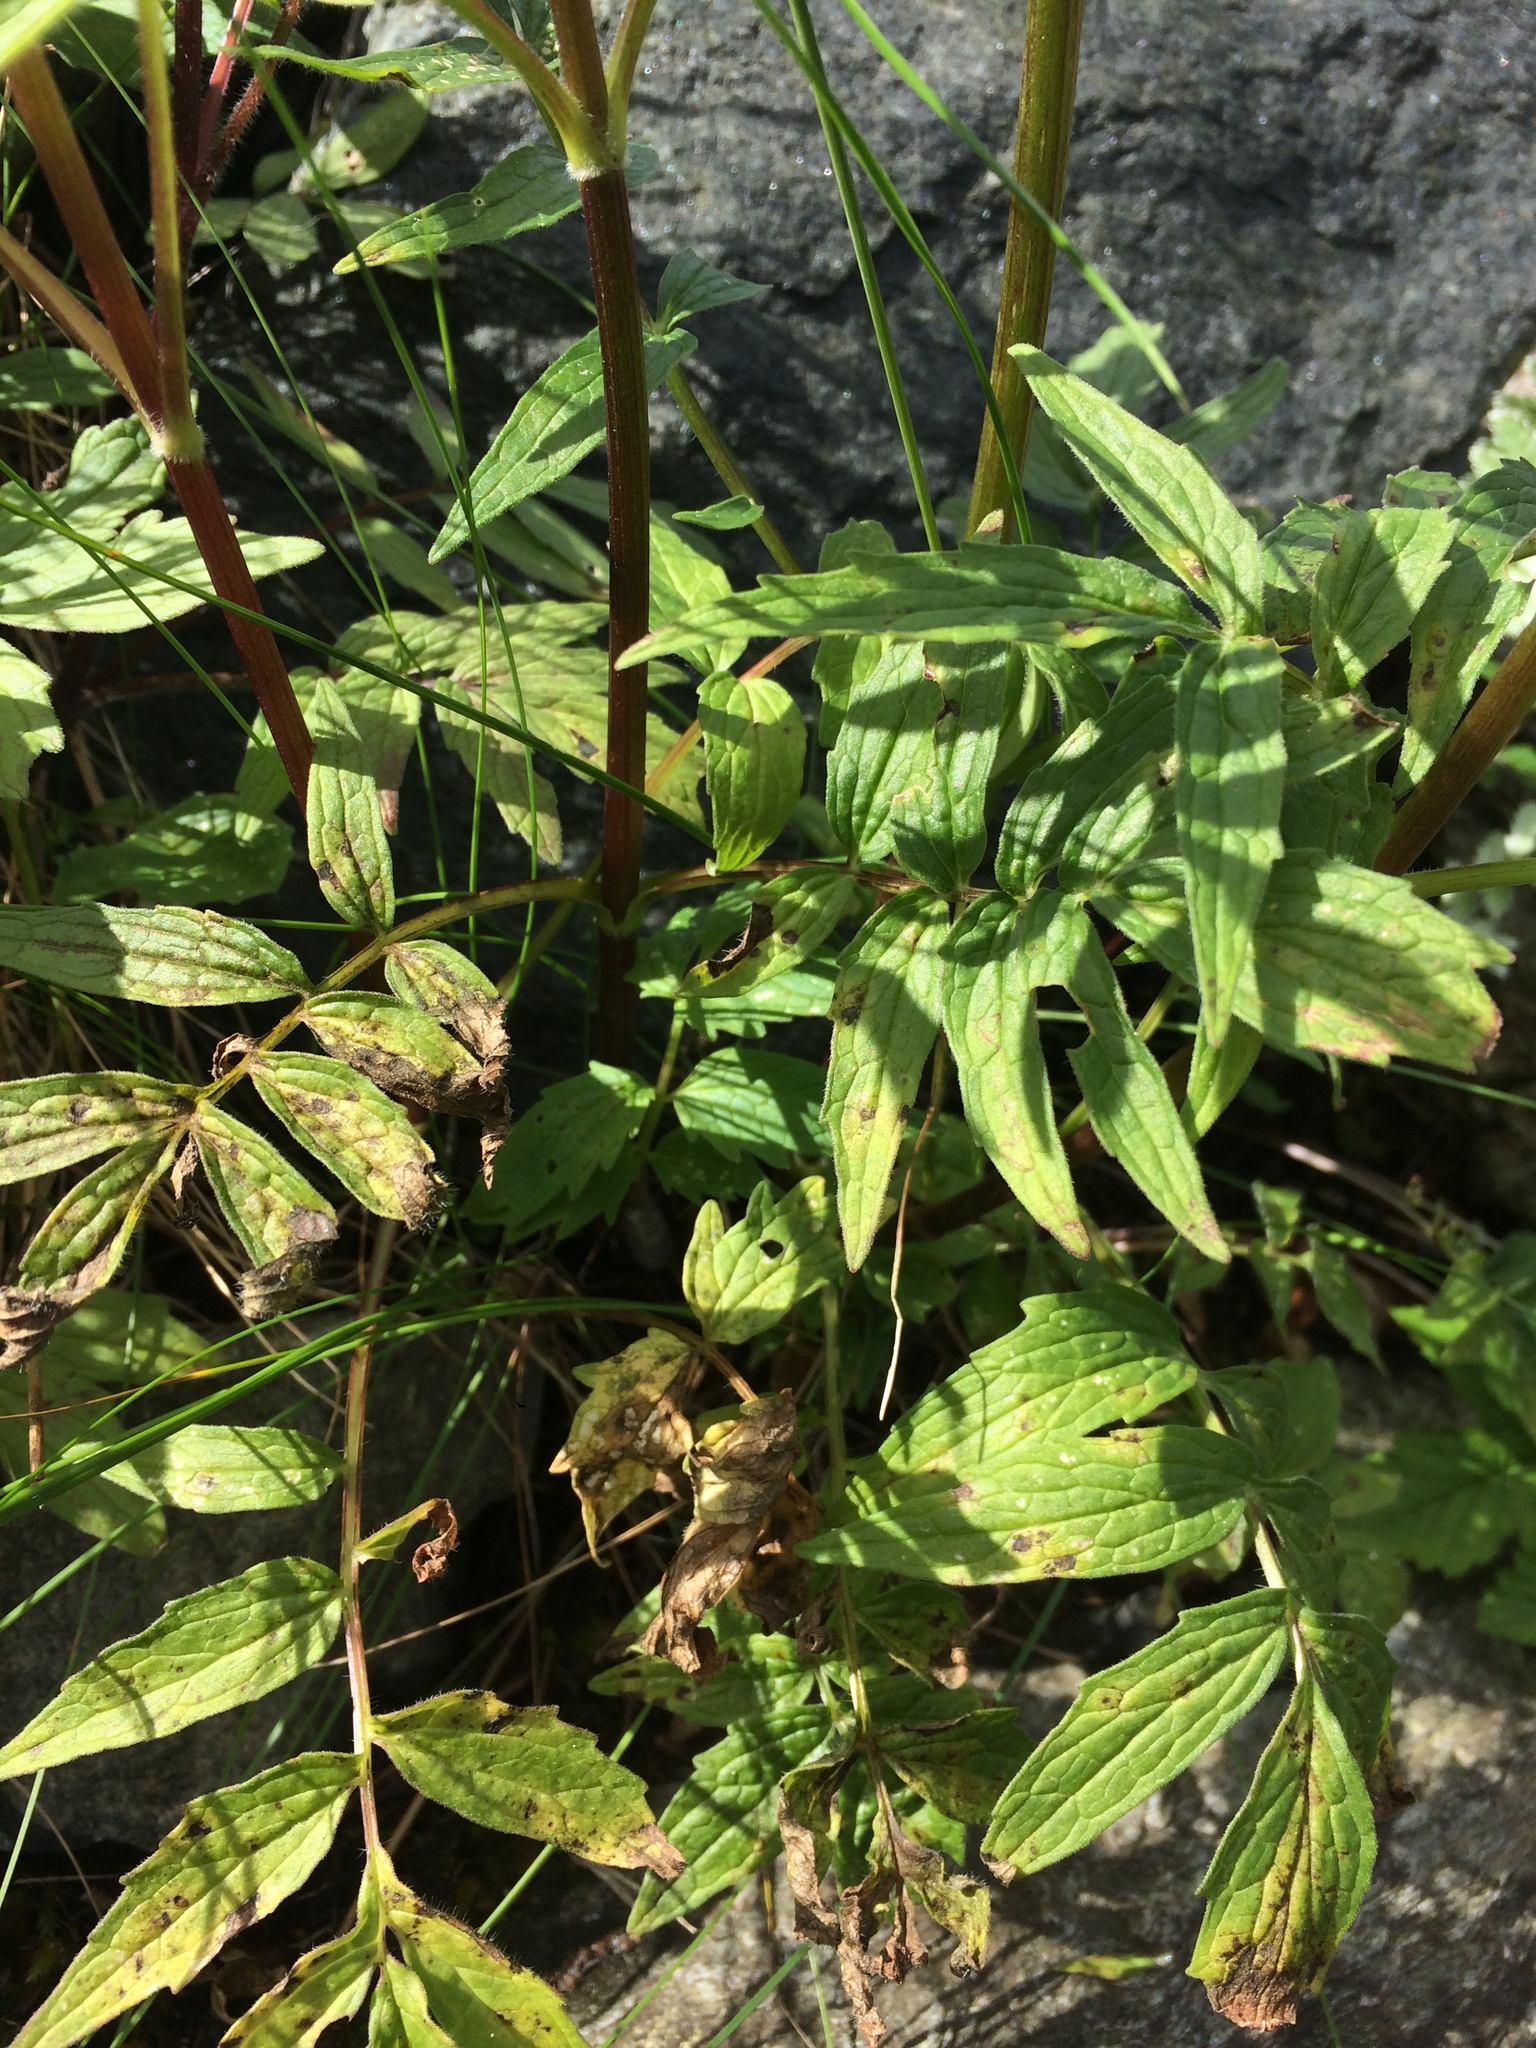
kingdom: Plantae
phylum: Tracheophyta
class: Magnoliopsida
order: Dipsacales
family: Caprifoliaceae
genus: Valeriana
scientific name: Valeriana officinalis
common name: Common valerian
